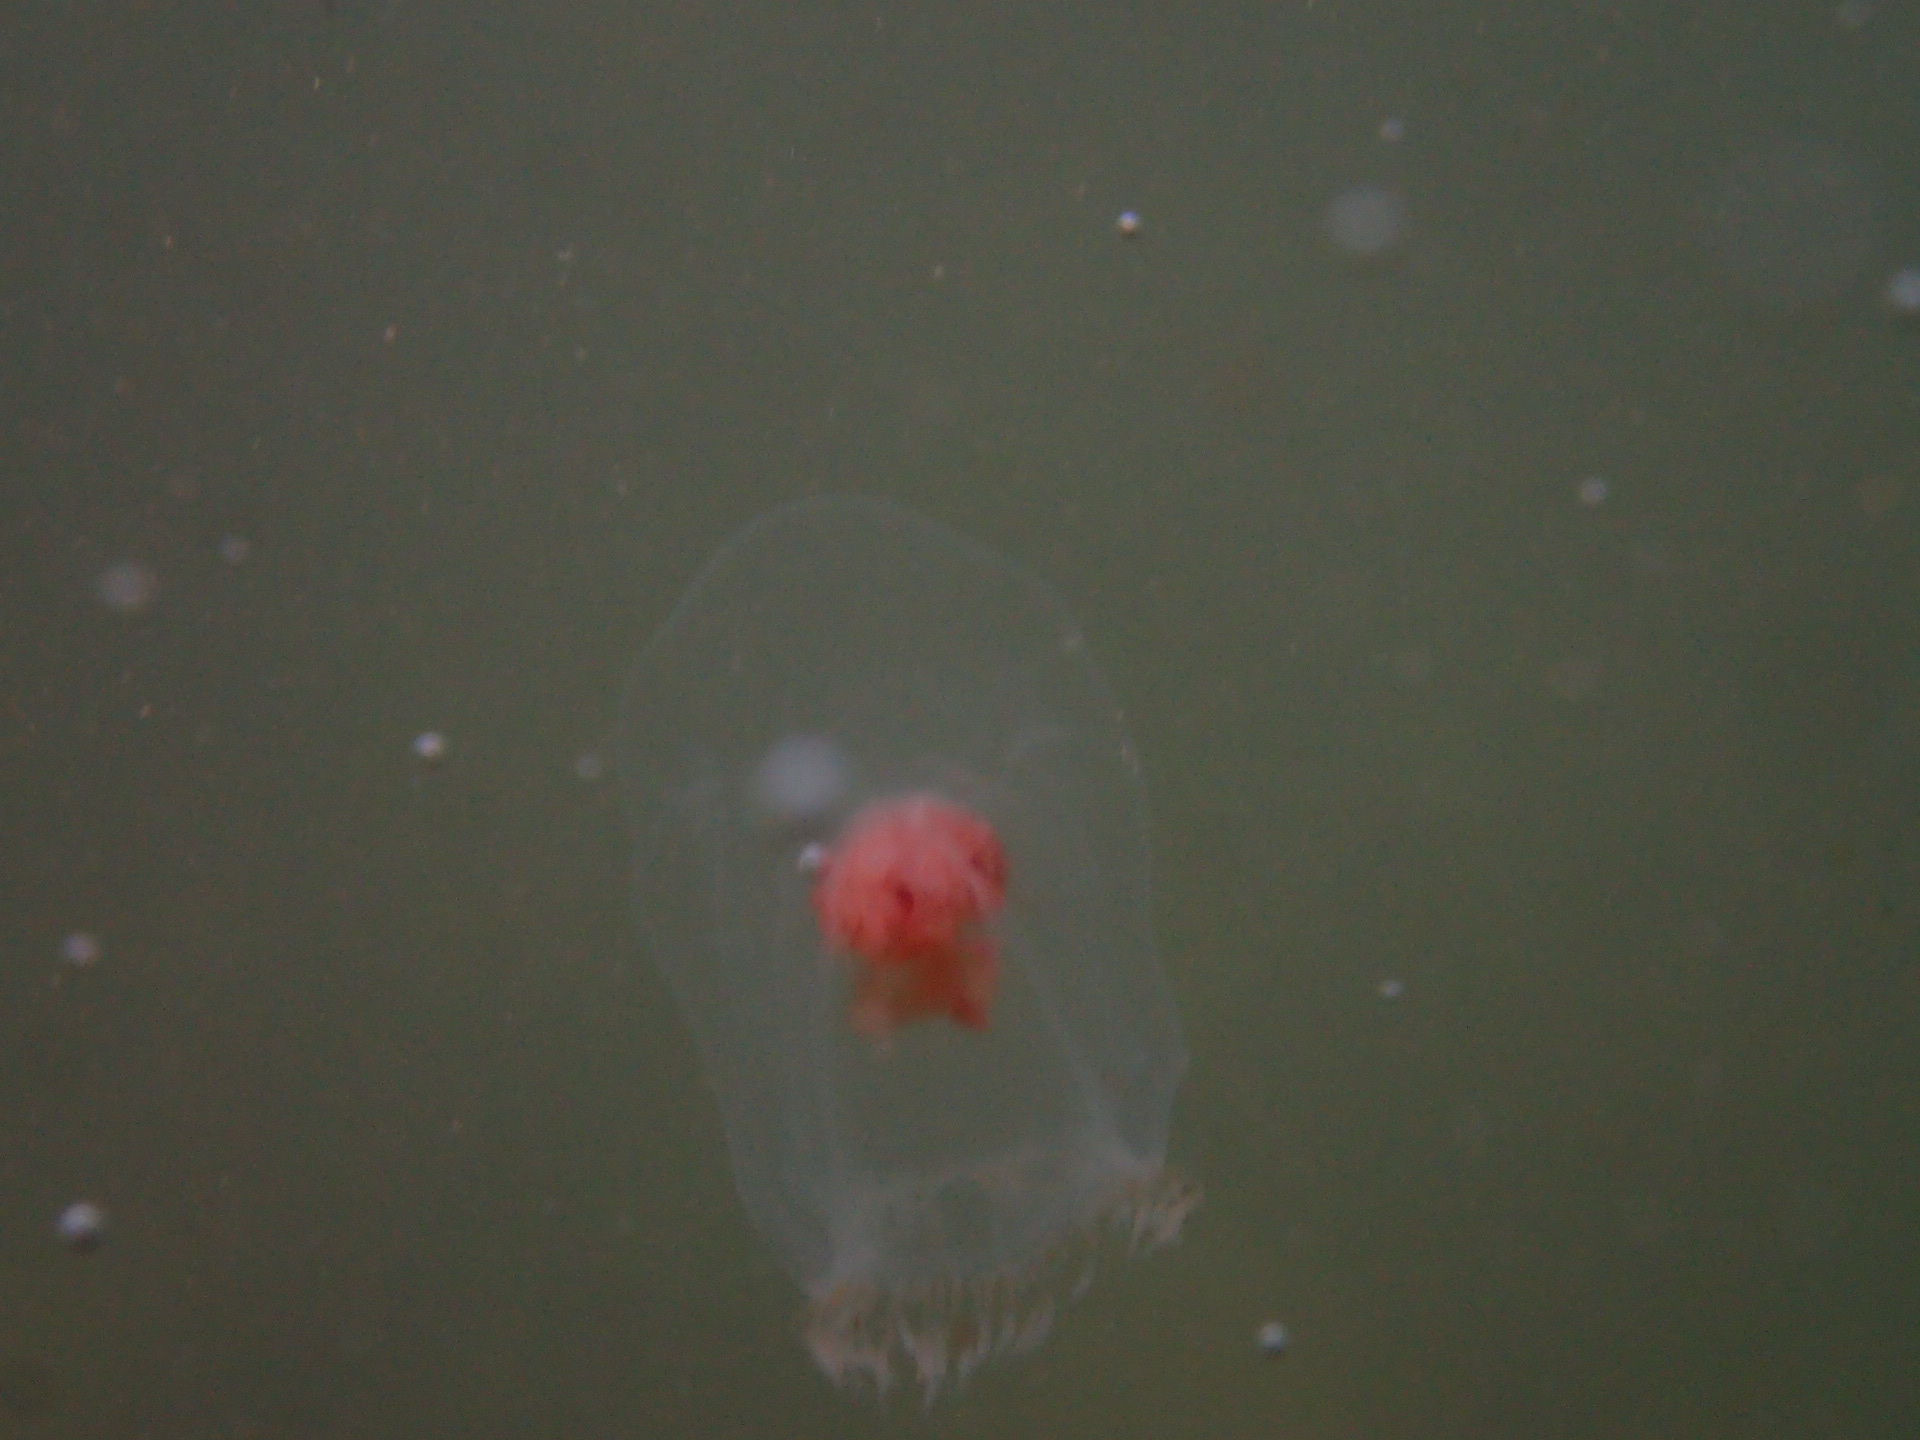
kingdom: Animalia
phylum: Cnidaria
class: Hydrozoa
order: Anthoathecata
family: Pandeidae
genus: Neoturris
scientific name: Neoturris breviconis
